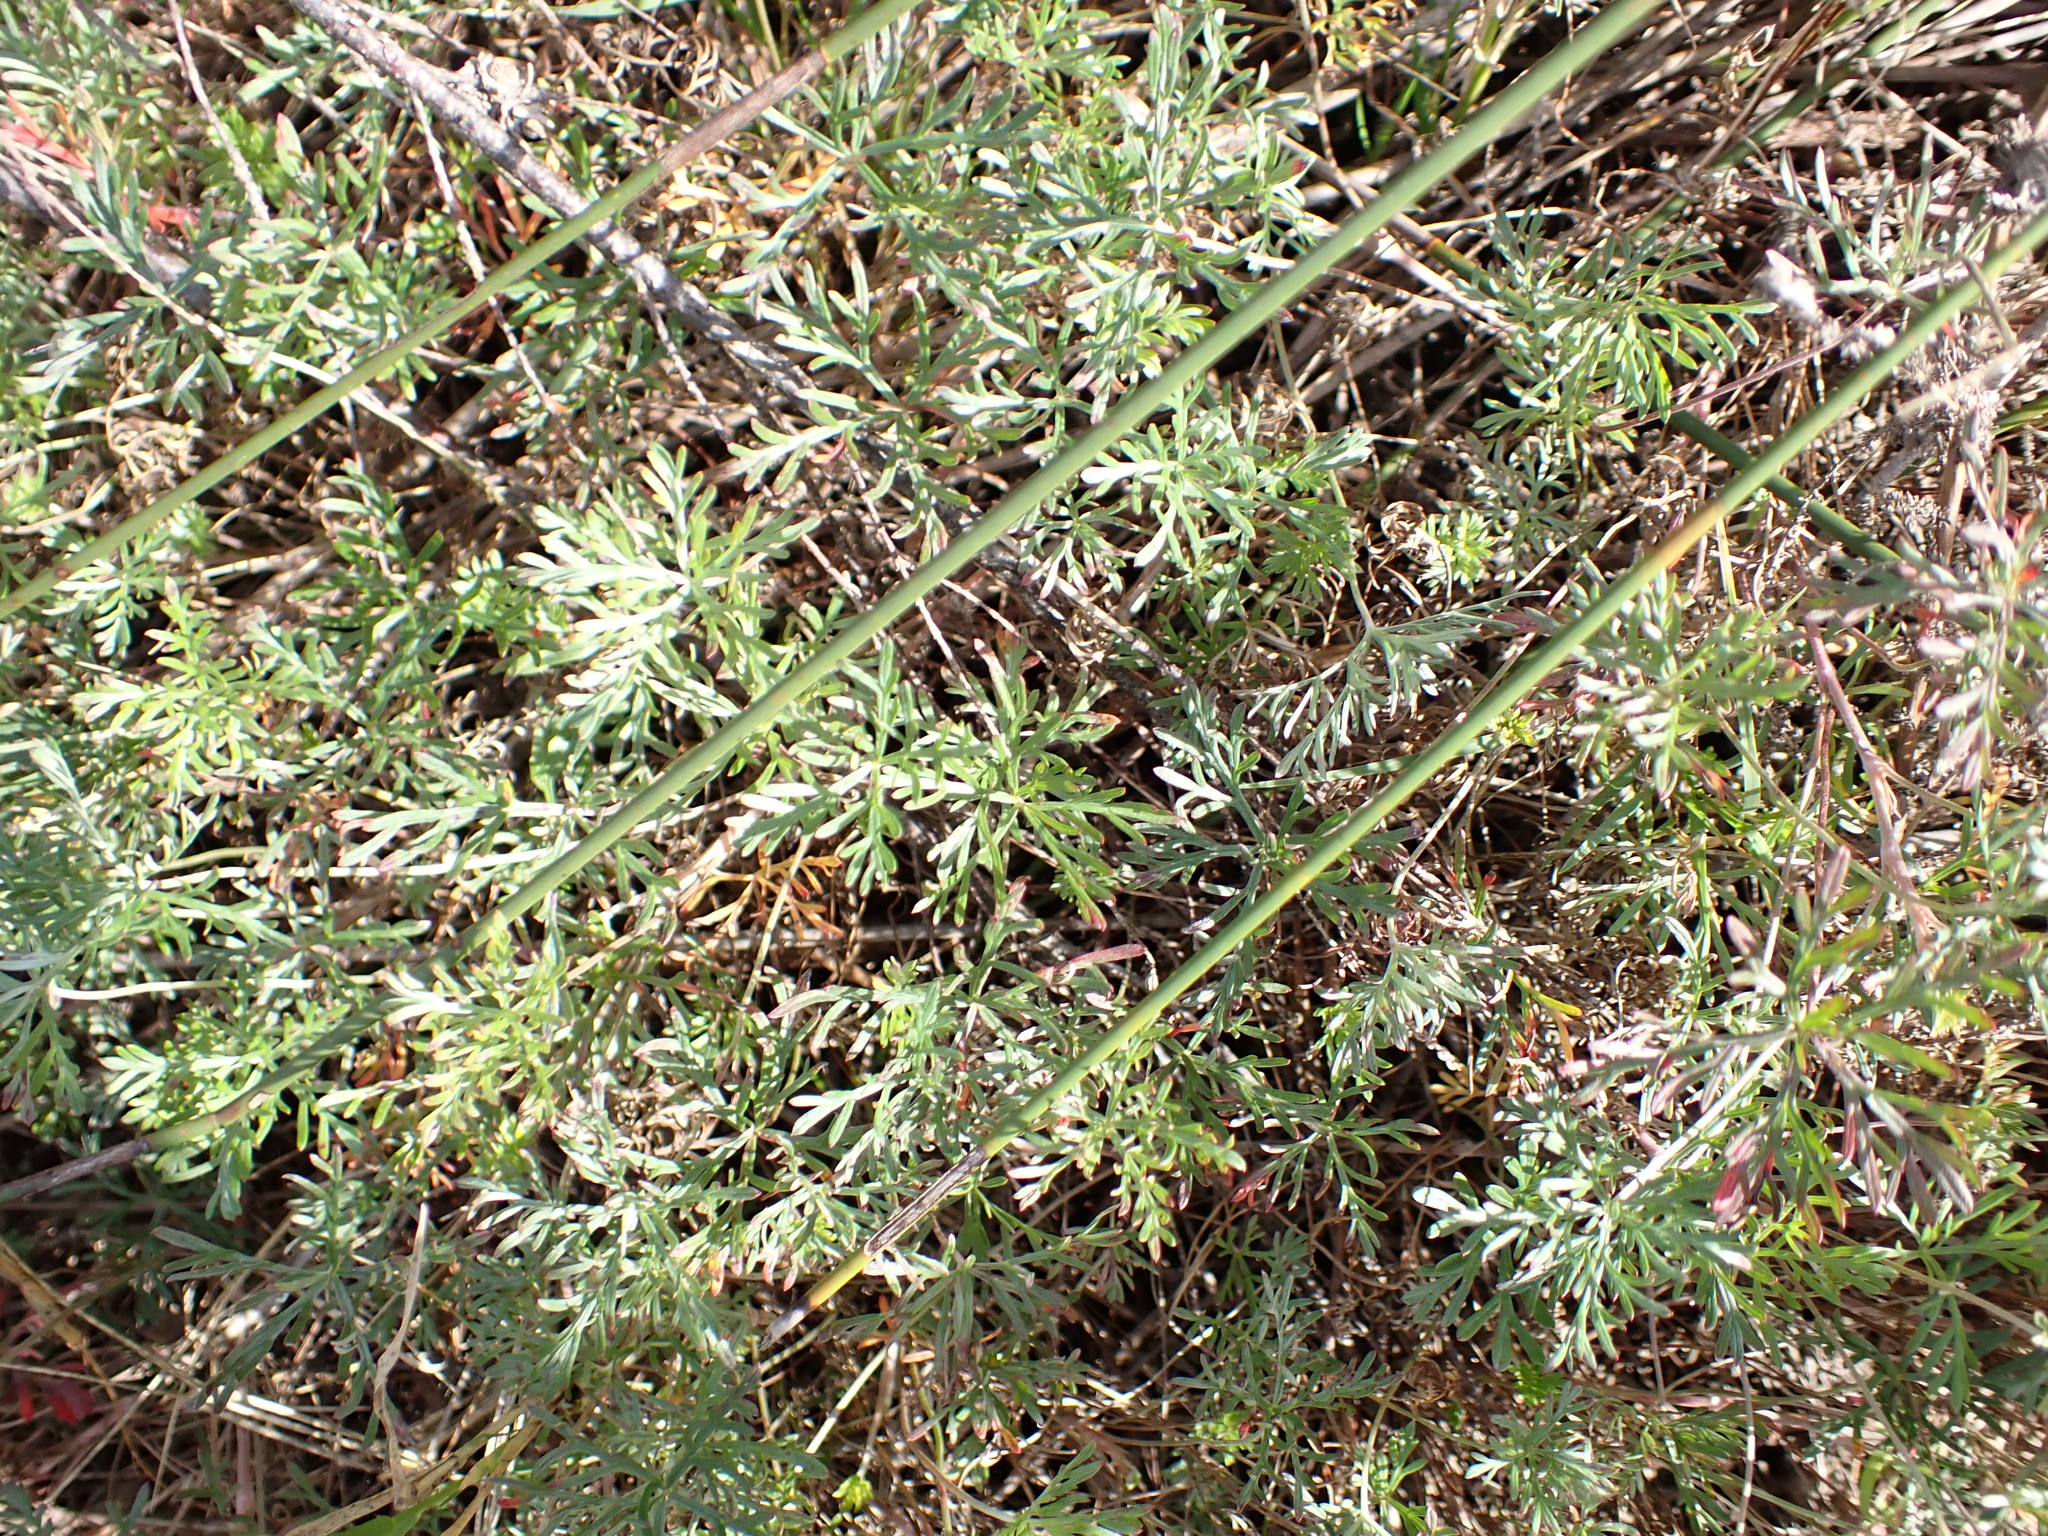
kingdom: Plantae
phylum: Tracheophyta
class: Magnoliopsida
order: Geraniales
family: Geraniaceae
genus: Geranium
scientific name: Geranium incanum
